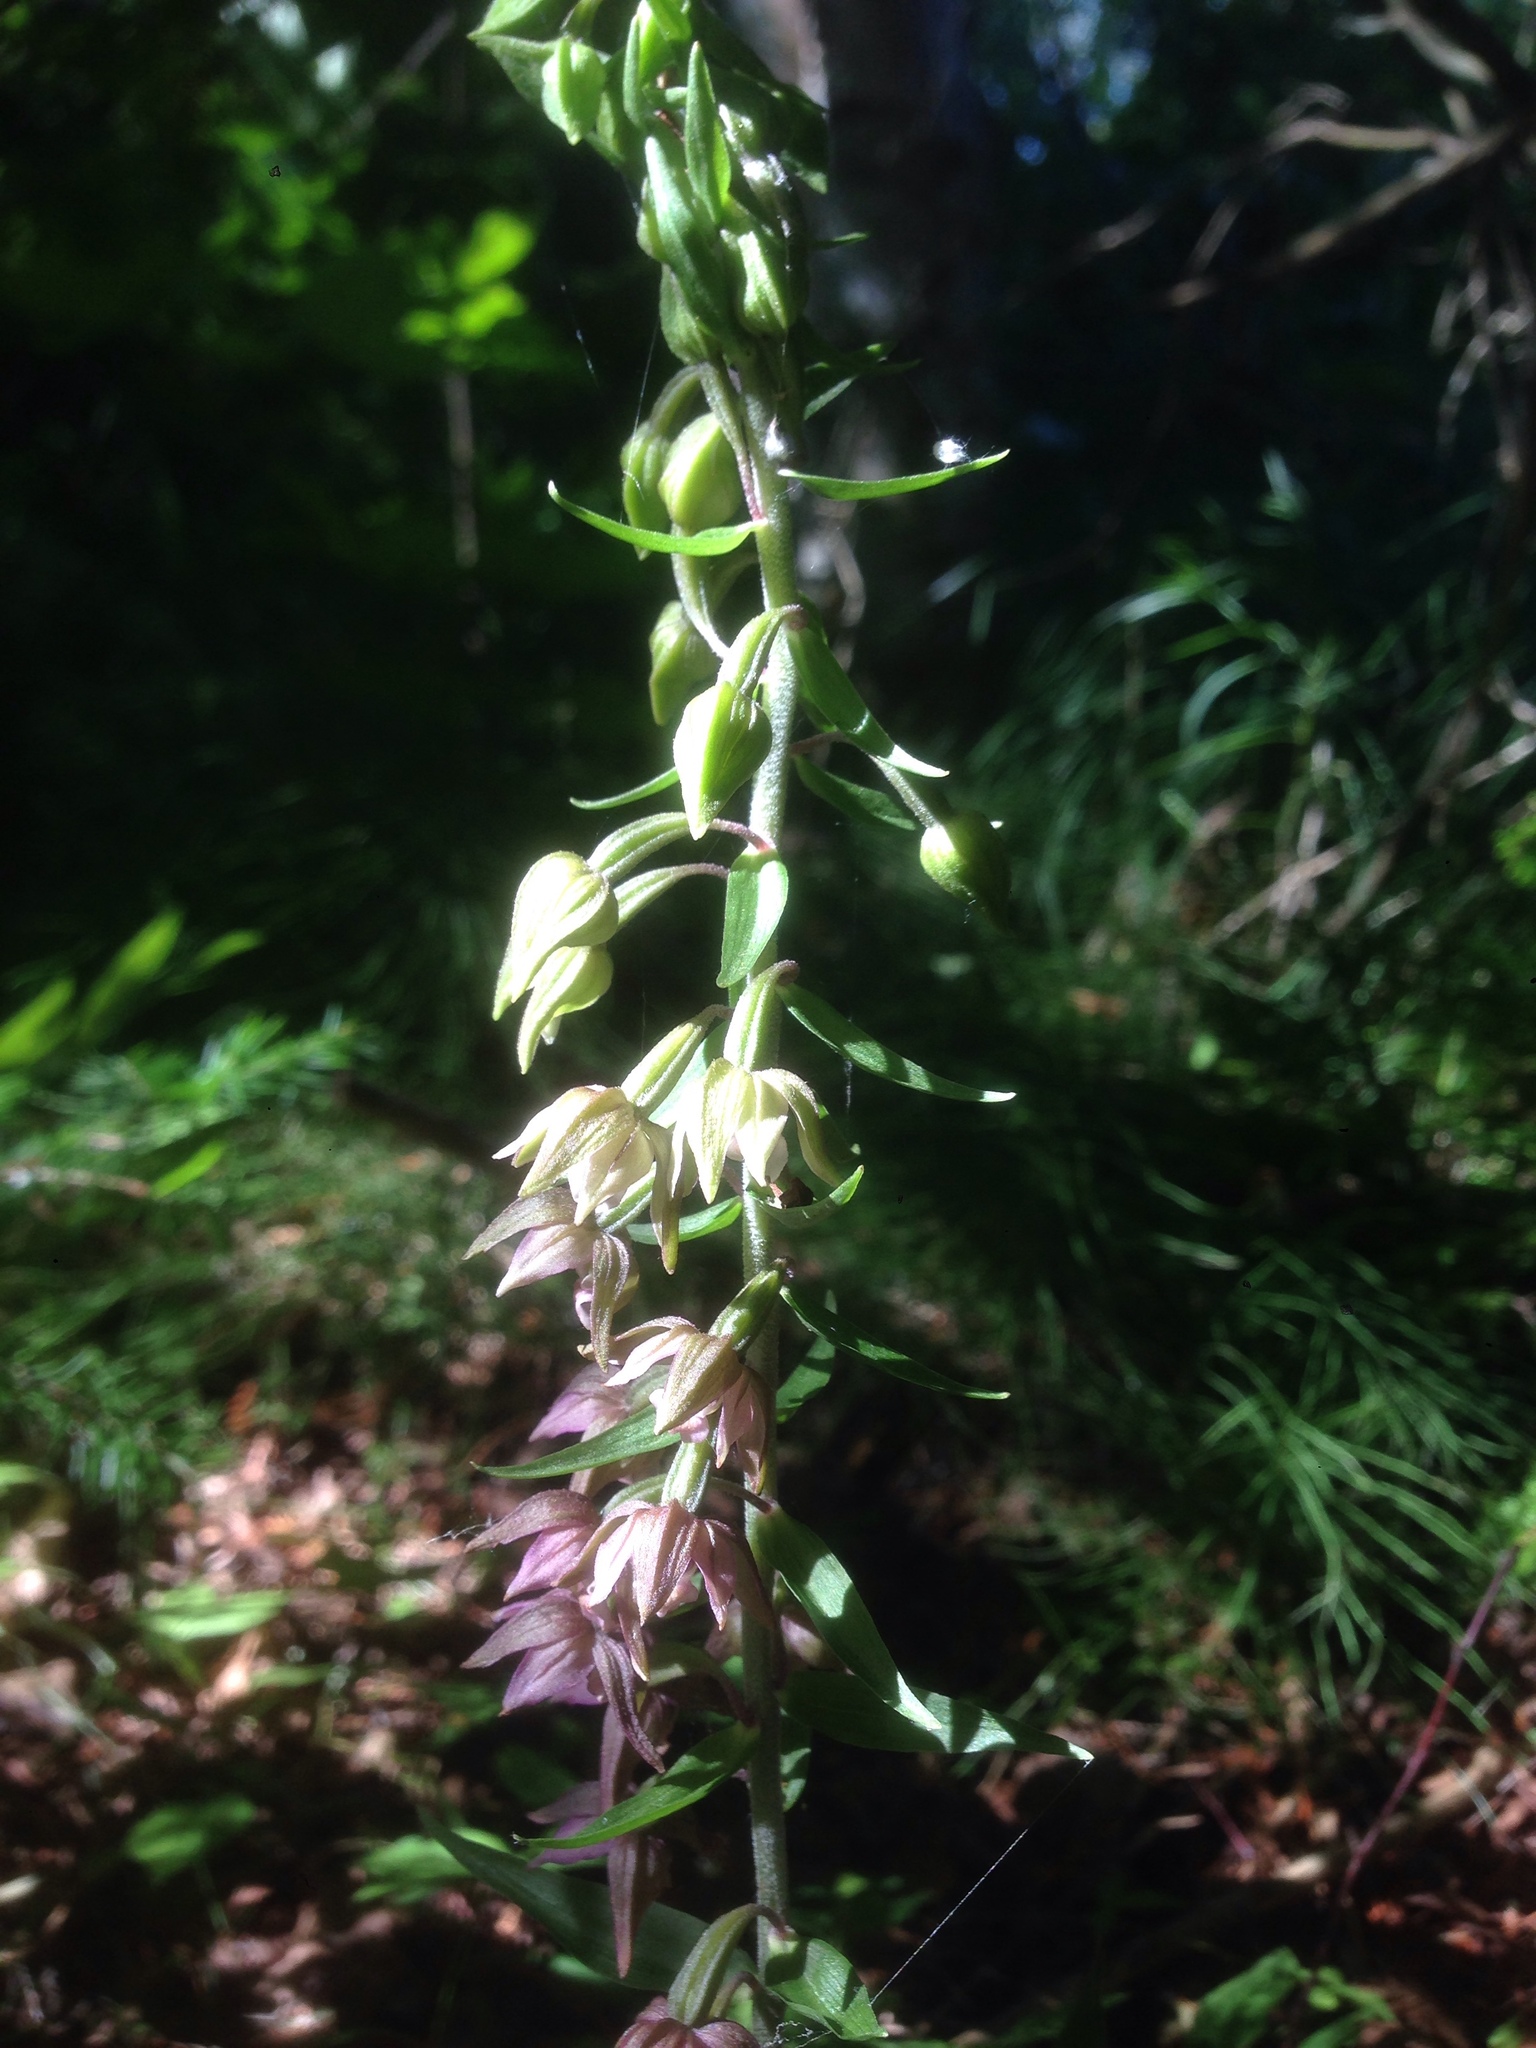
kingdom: Plantae
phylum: Tracheophyta
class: Liliopsida
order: Asparagales
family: Orchidaceae
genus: Epipactis
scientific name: Epipactis helleborine
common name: Broad-leaved helleborine
